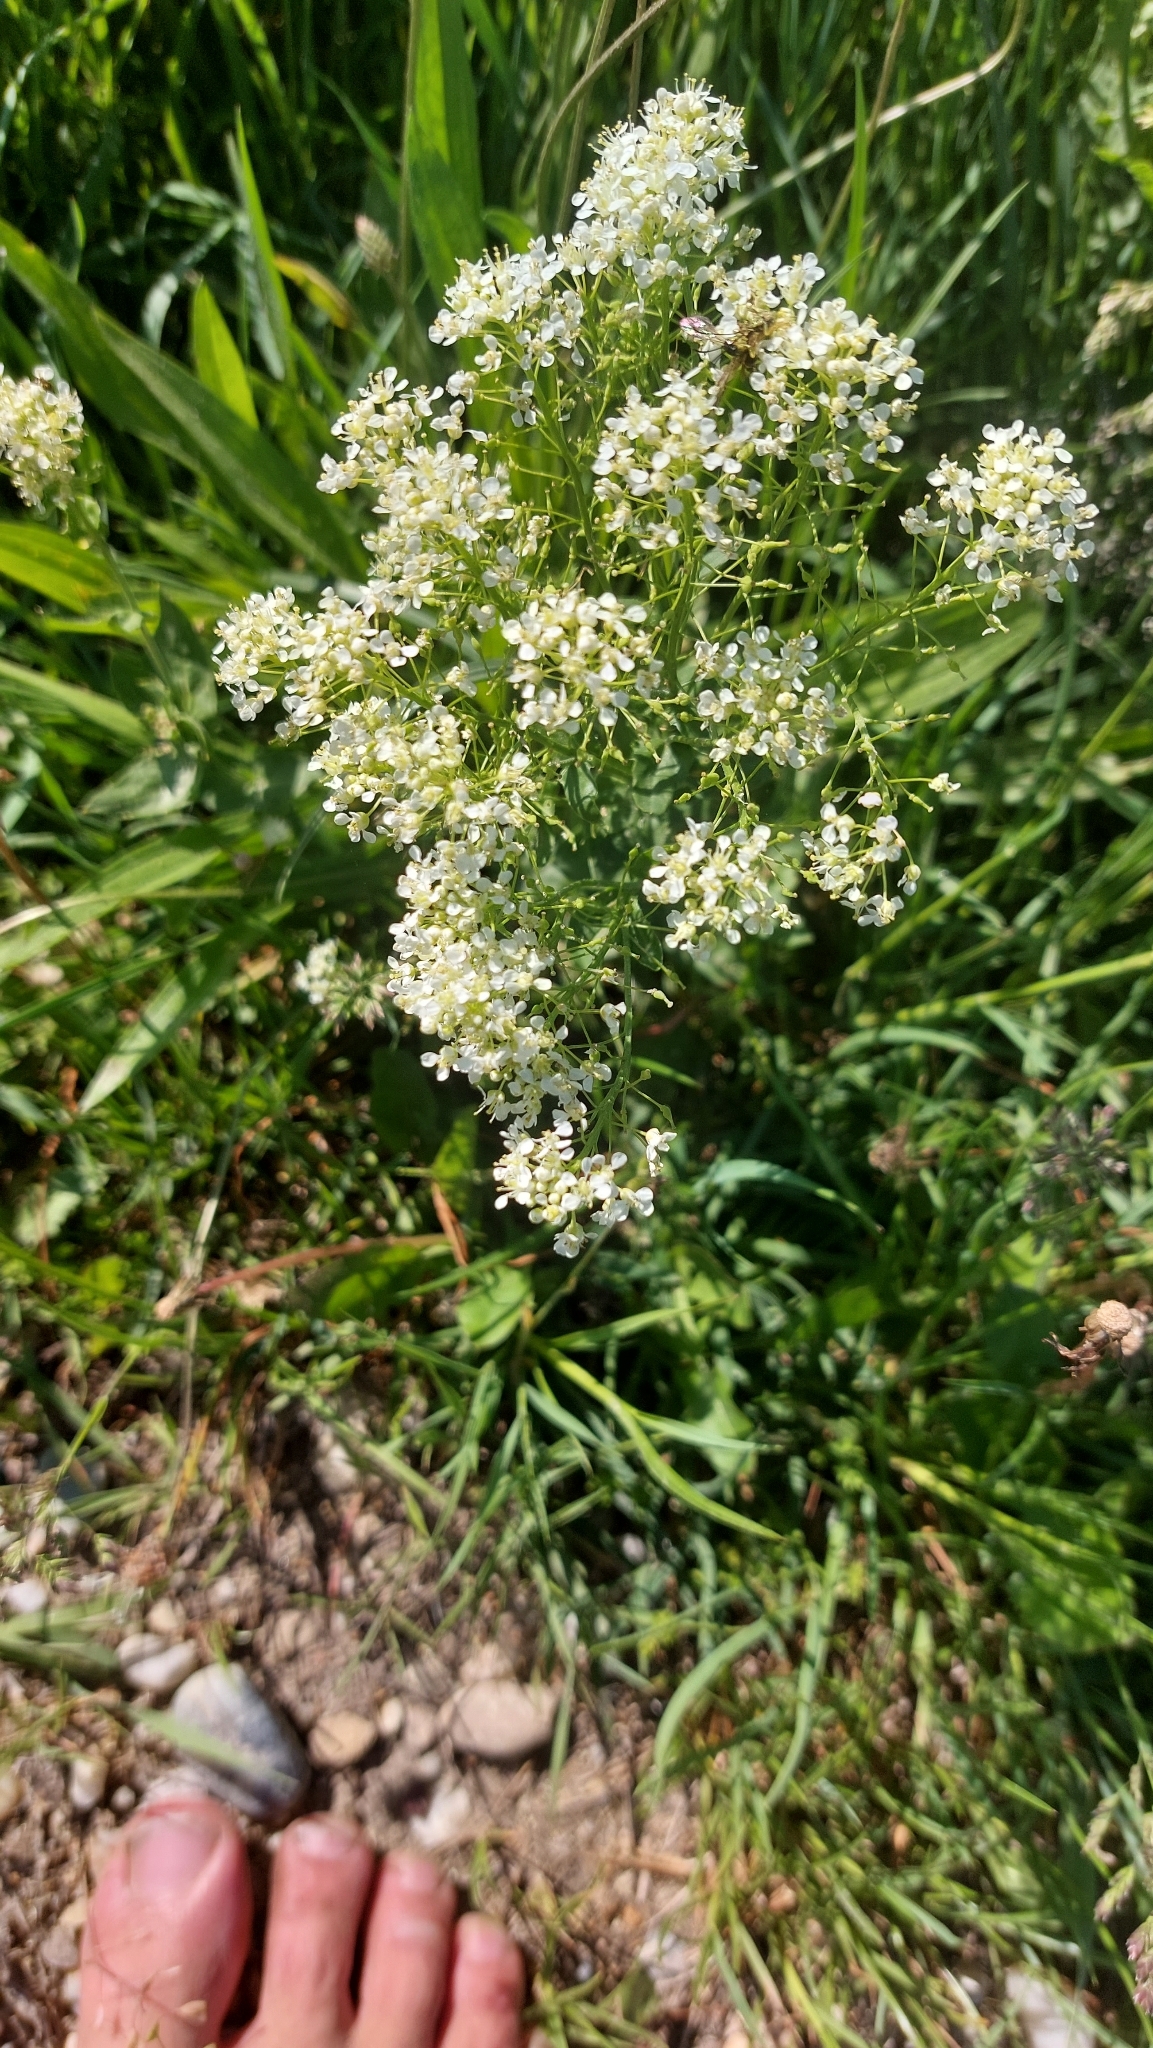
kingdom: Plantae
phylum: Tracheophyta
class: Magnoliopsida
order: Brassicales
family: Brassicaceae
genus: Lepidium
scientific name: Lepidium draba
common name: Hoary cress
